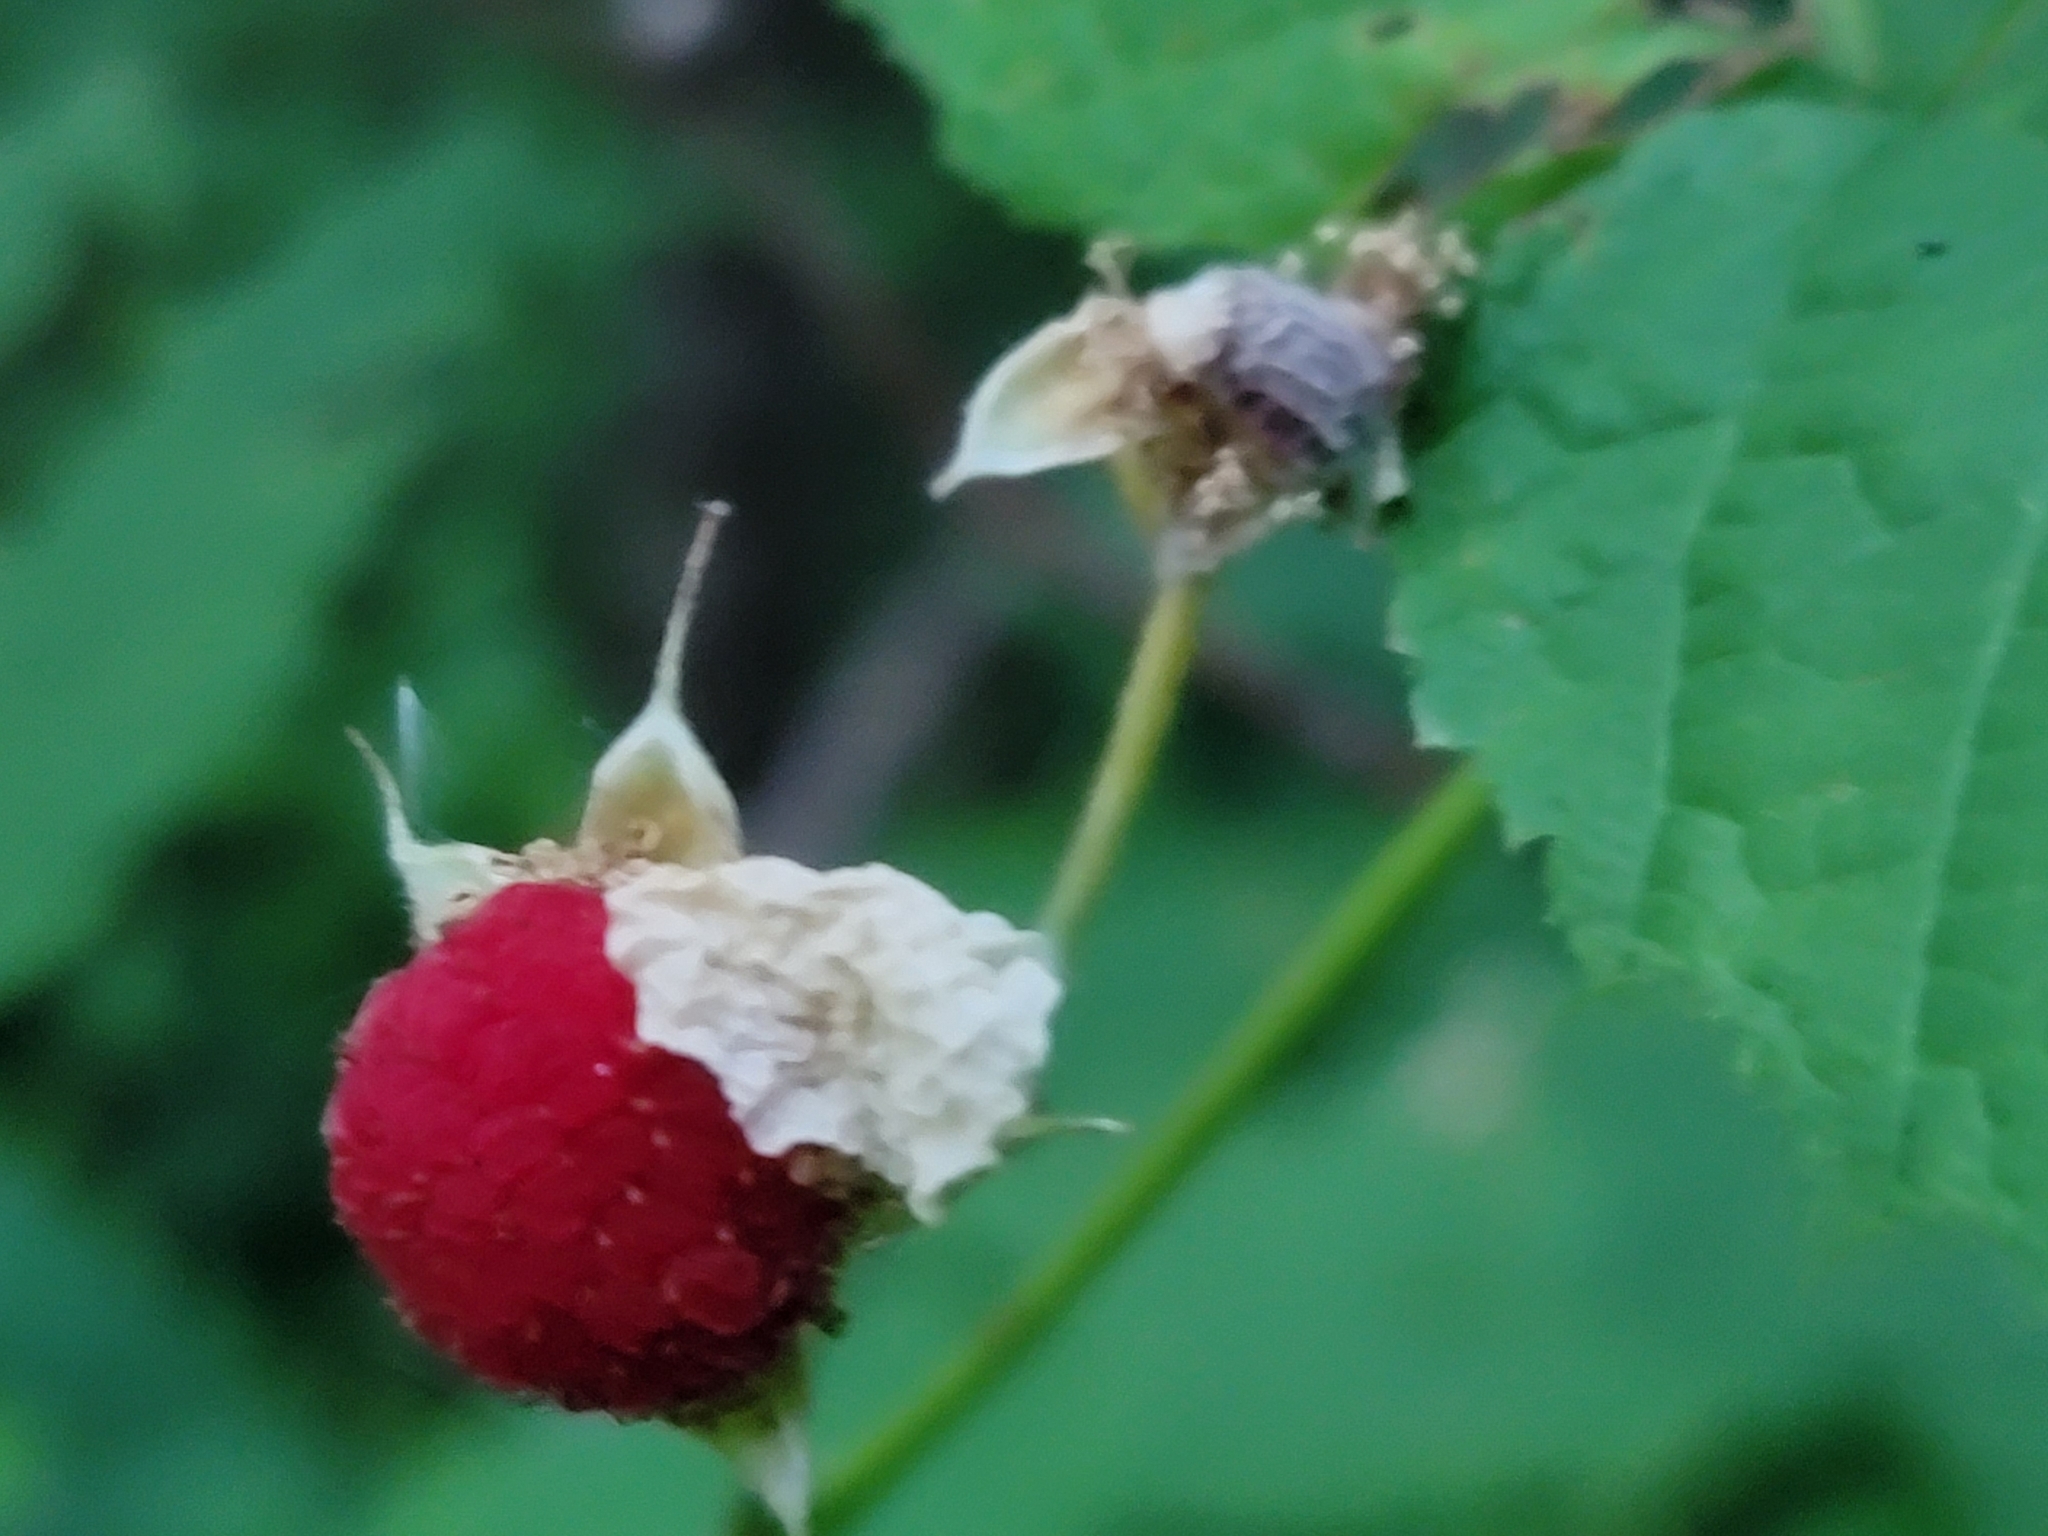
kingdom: Plantae
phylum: Tracheophyta
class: Magnoliopsida
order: Rosales
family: Rosaceae
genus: Rubus
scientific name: Rubus parviflorus
